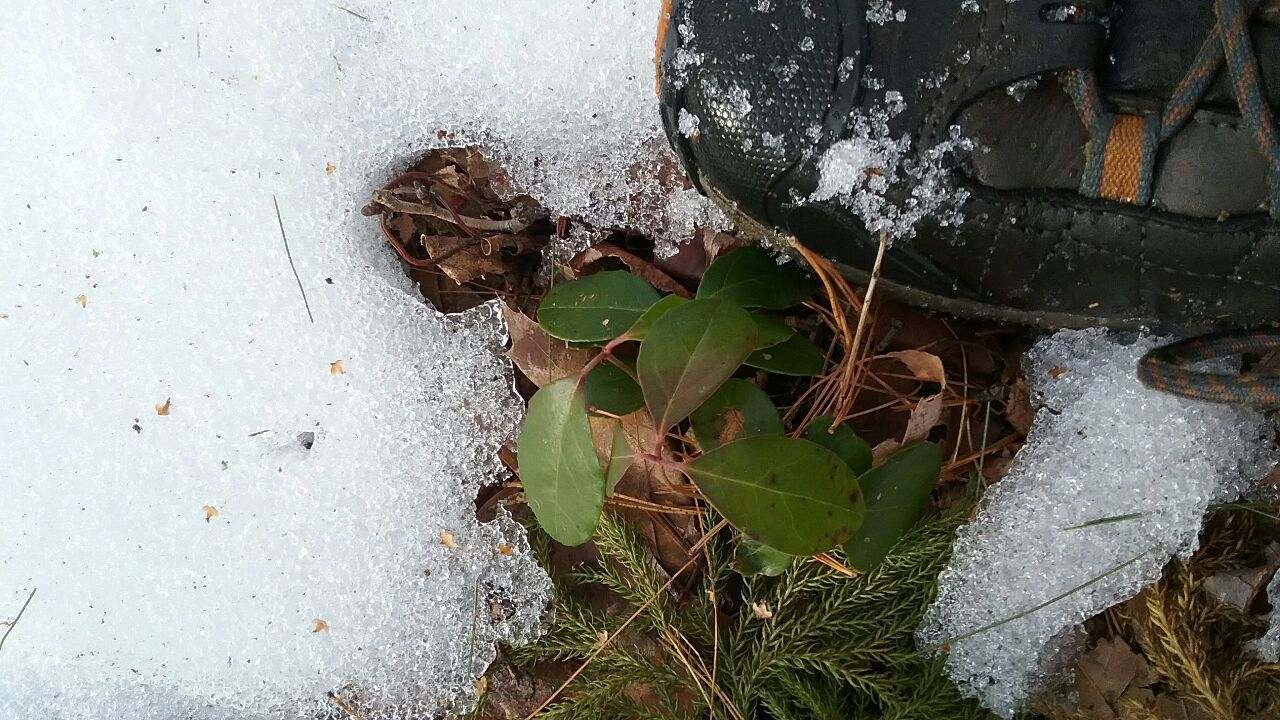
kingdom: Plantae
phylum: Tracheophyta
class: Magnoliopsida
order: Ericales
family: Ericaceae
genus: Gaultheria
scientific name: Gaultheria procumbens
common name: Checkerberry
